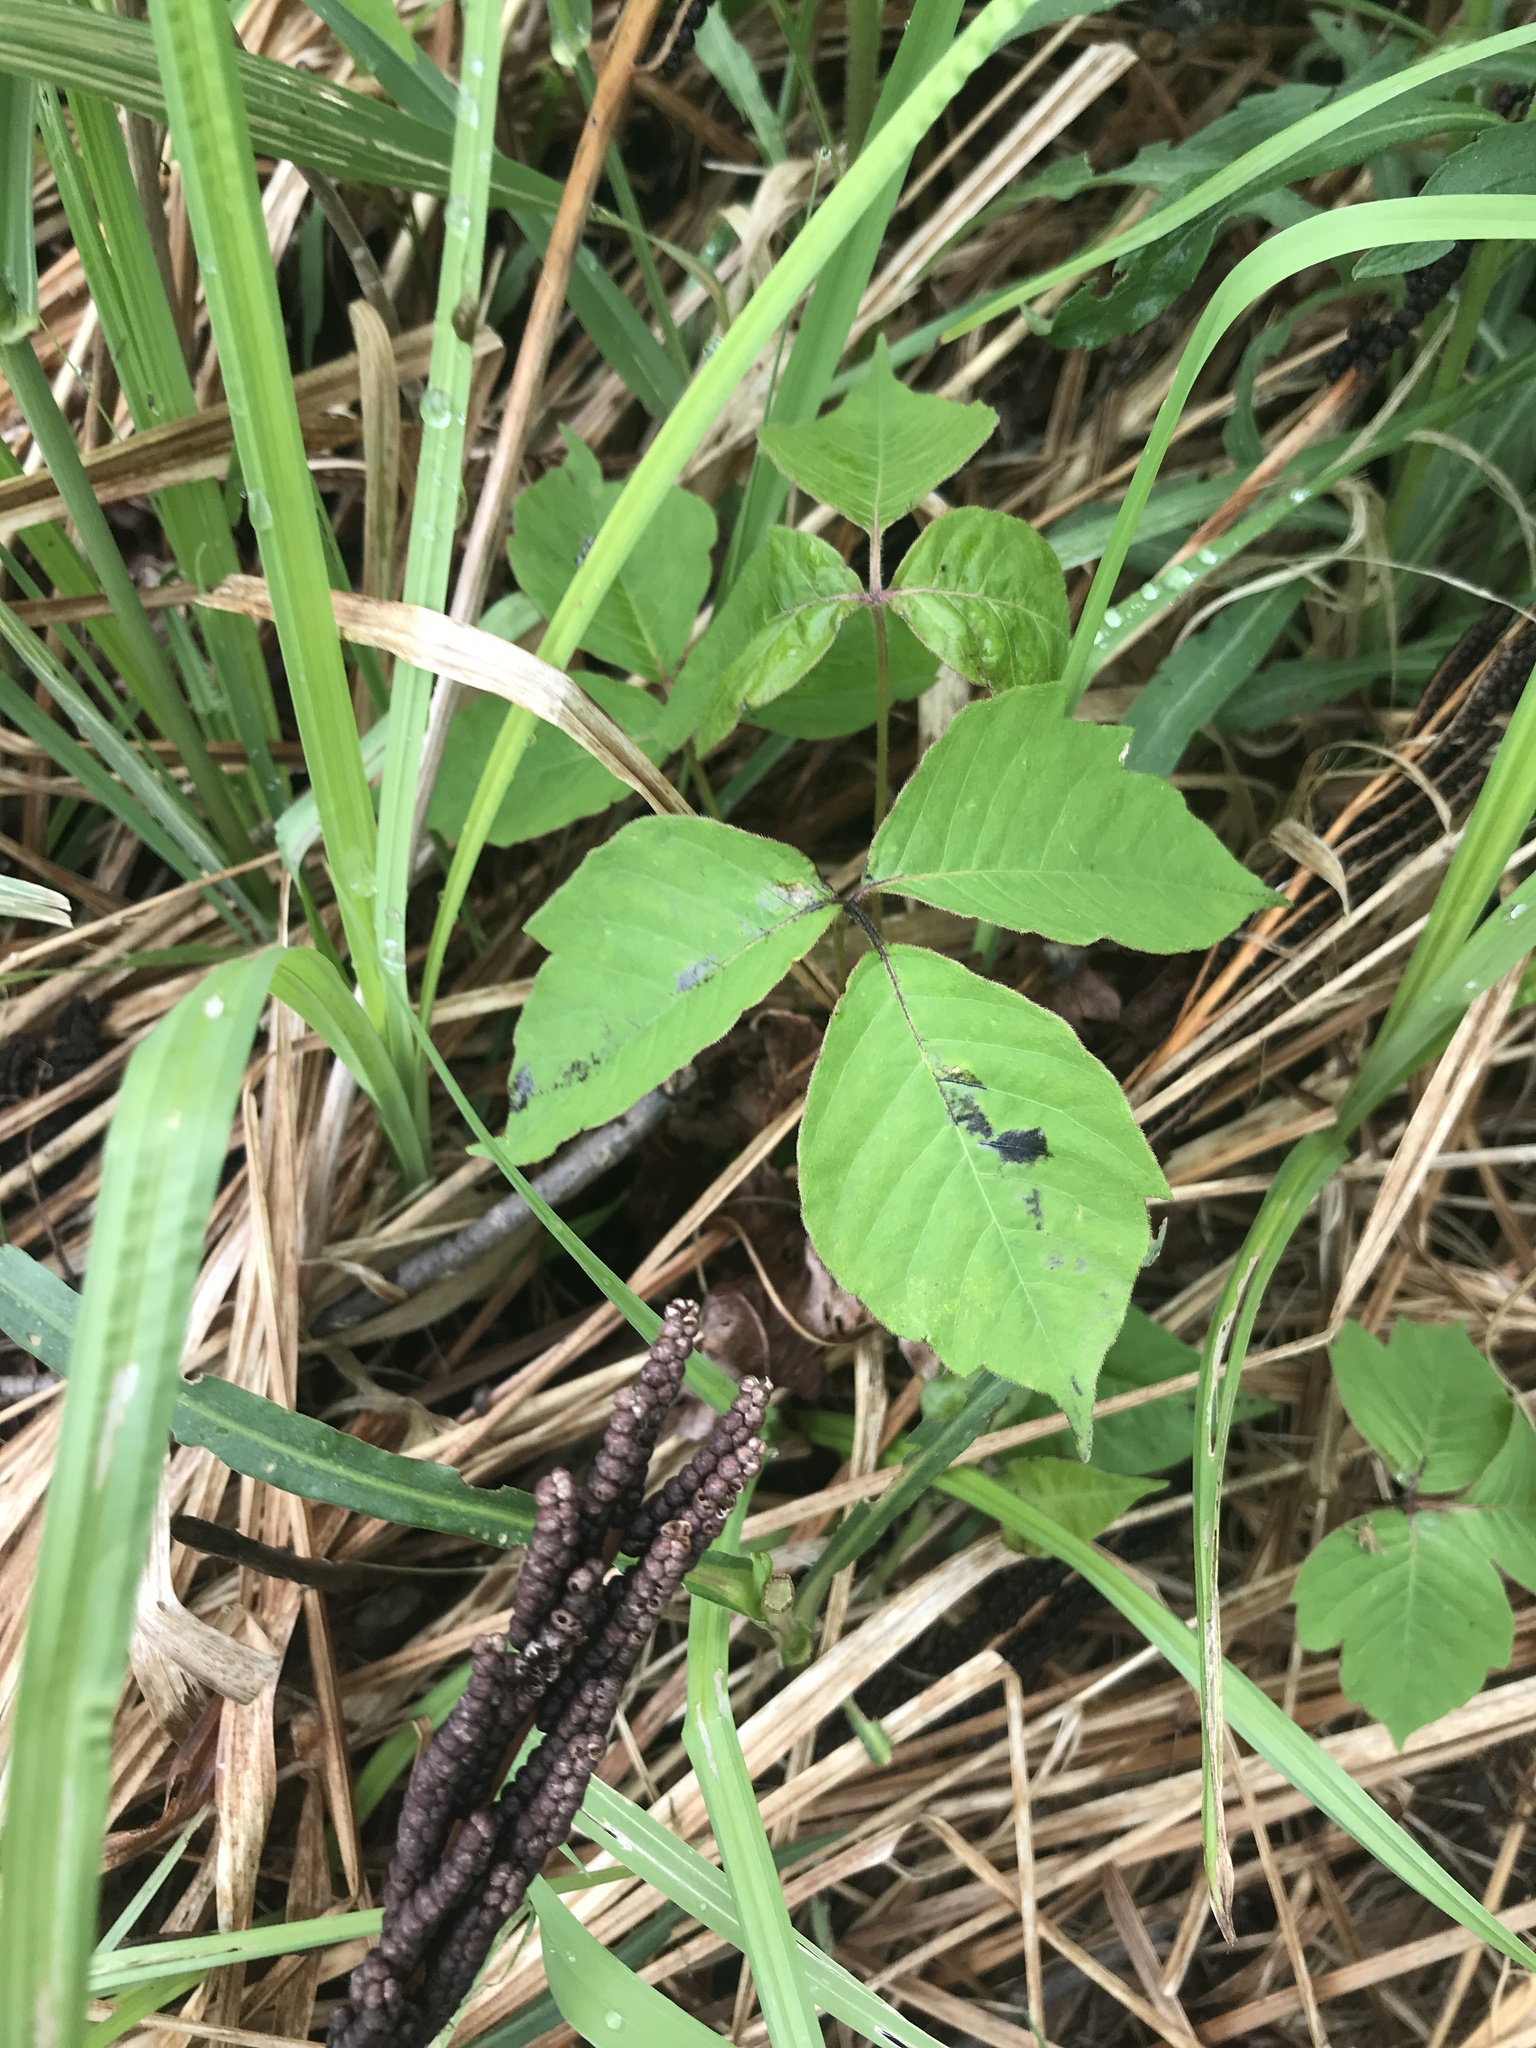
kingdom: Plantae
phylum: Tracheophyta
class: Magnoliopsida
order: Sapindales
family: Anacardiaceae
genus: Toxicodendron
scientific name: Toxicodendron radicans
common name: Poison ivy
